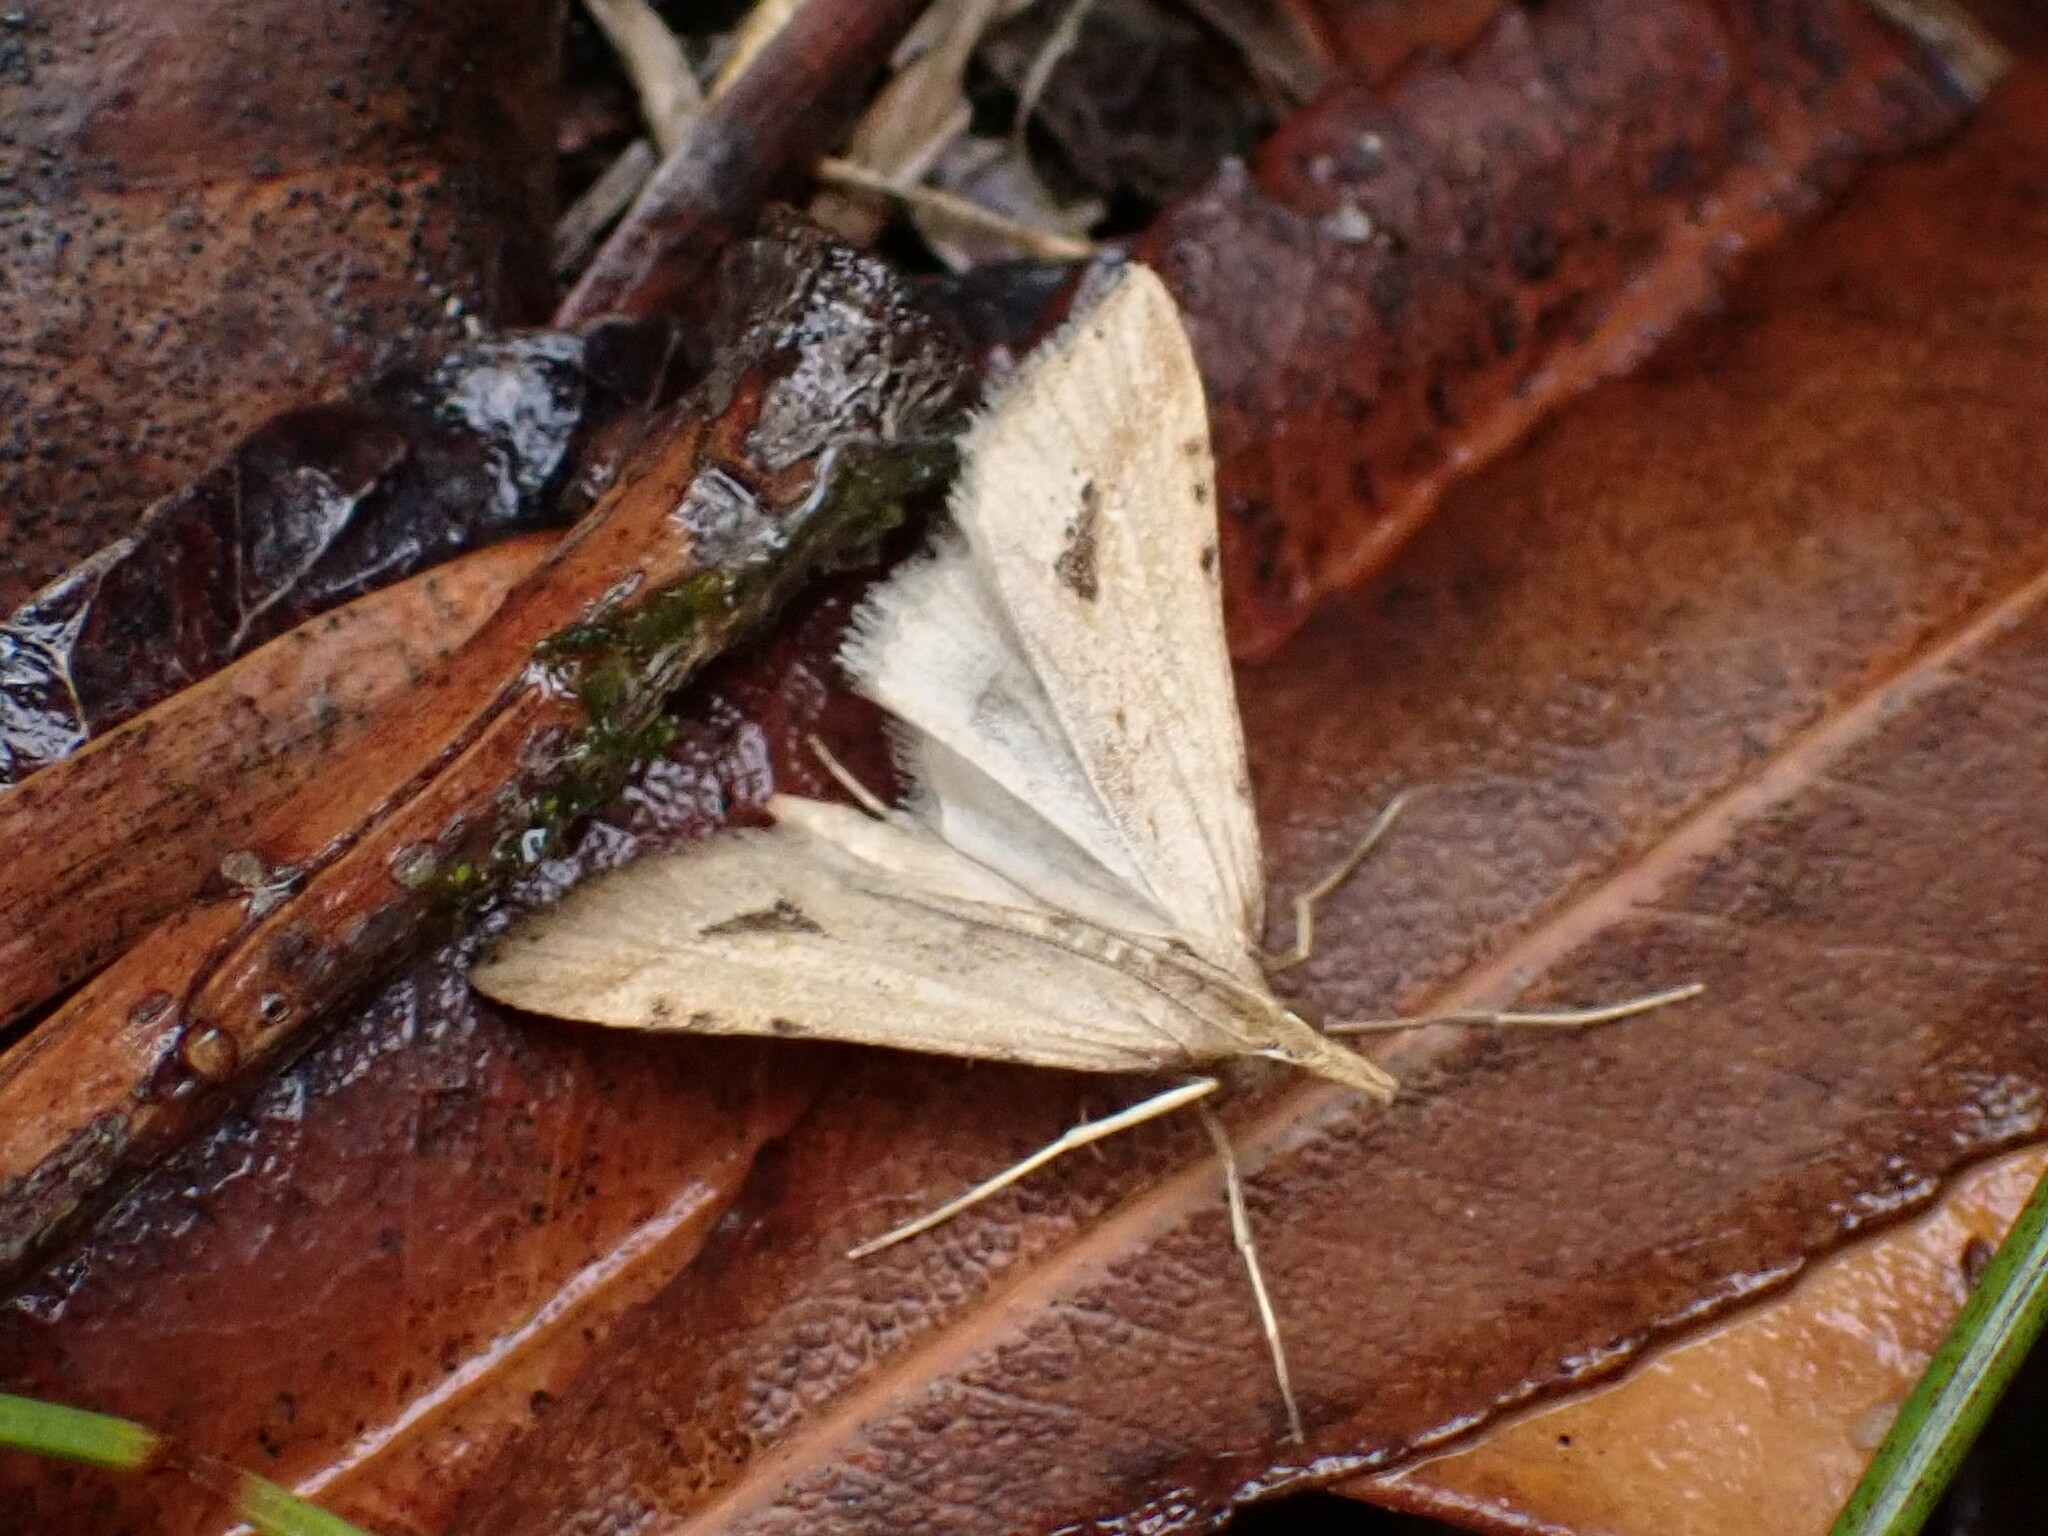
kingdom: Animalia
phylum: Arthropoda
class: Insecta
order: Lepidoptera
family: Crambidae
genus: Diasemia
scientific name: Diasemia monostigma
